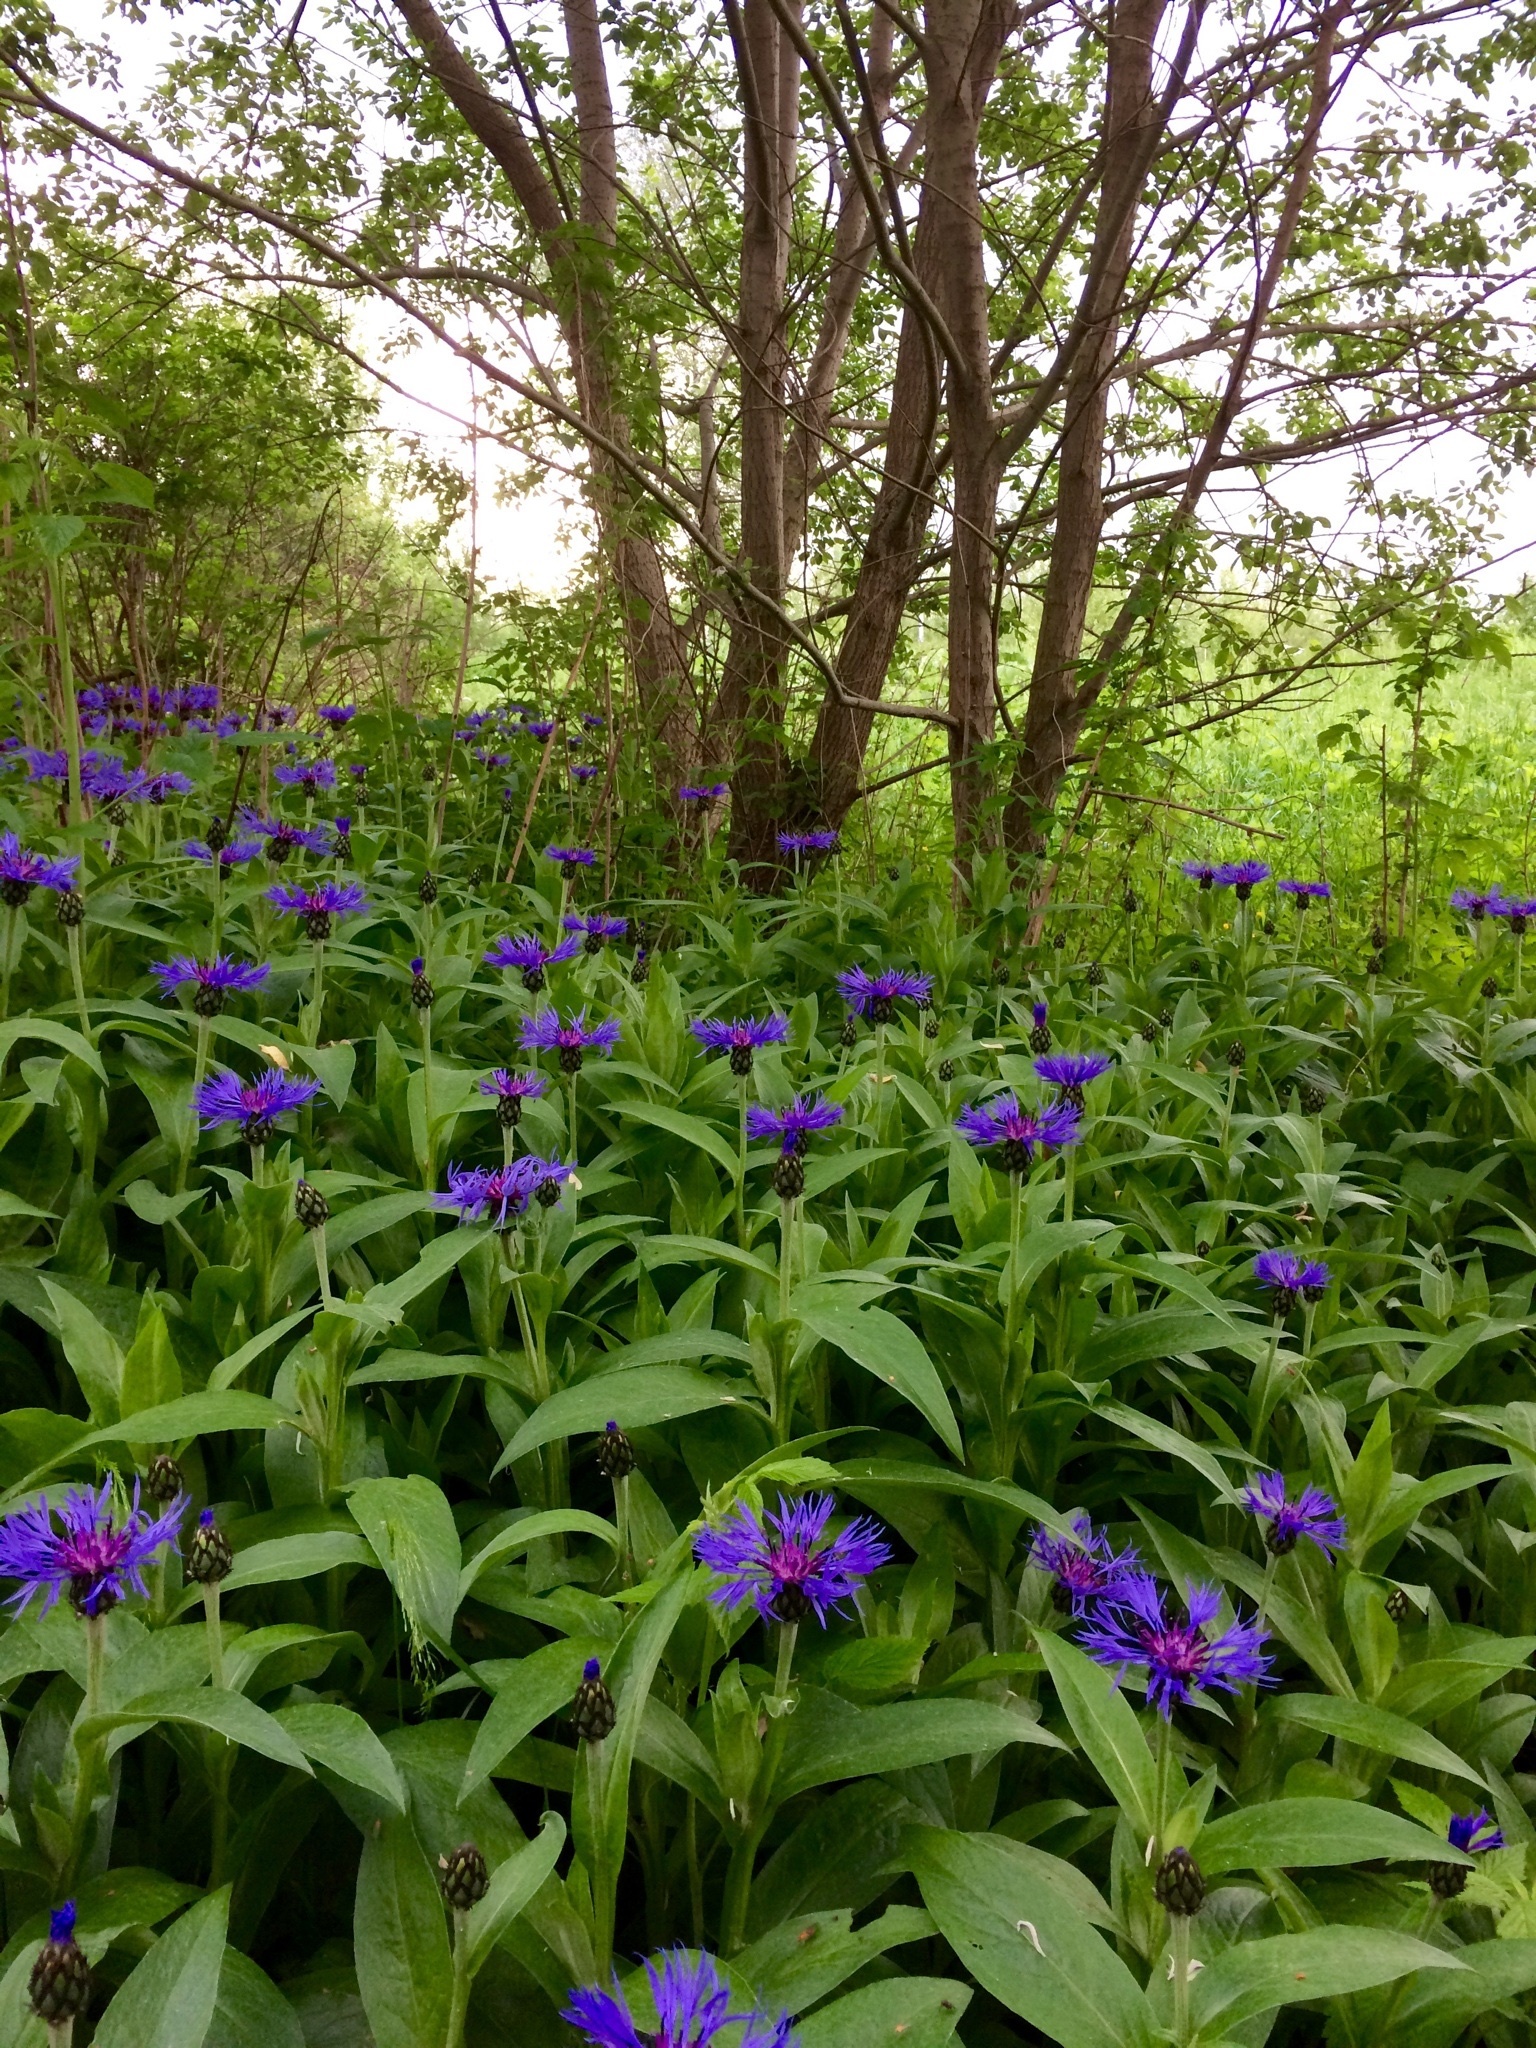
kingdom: Plantae
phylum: Tracheophyta
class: Magnoliopsida
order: Asterales
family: Asteraceae
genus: Centaurea
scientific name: Centaurea montana
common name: Perennial cornflower
